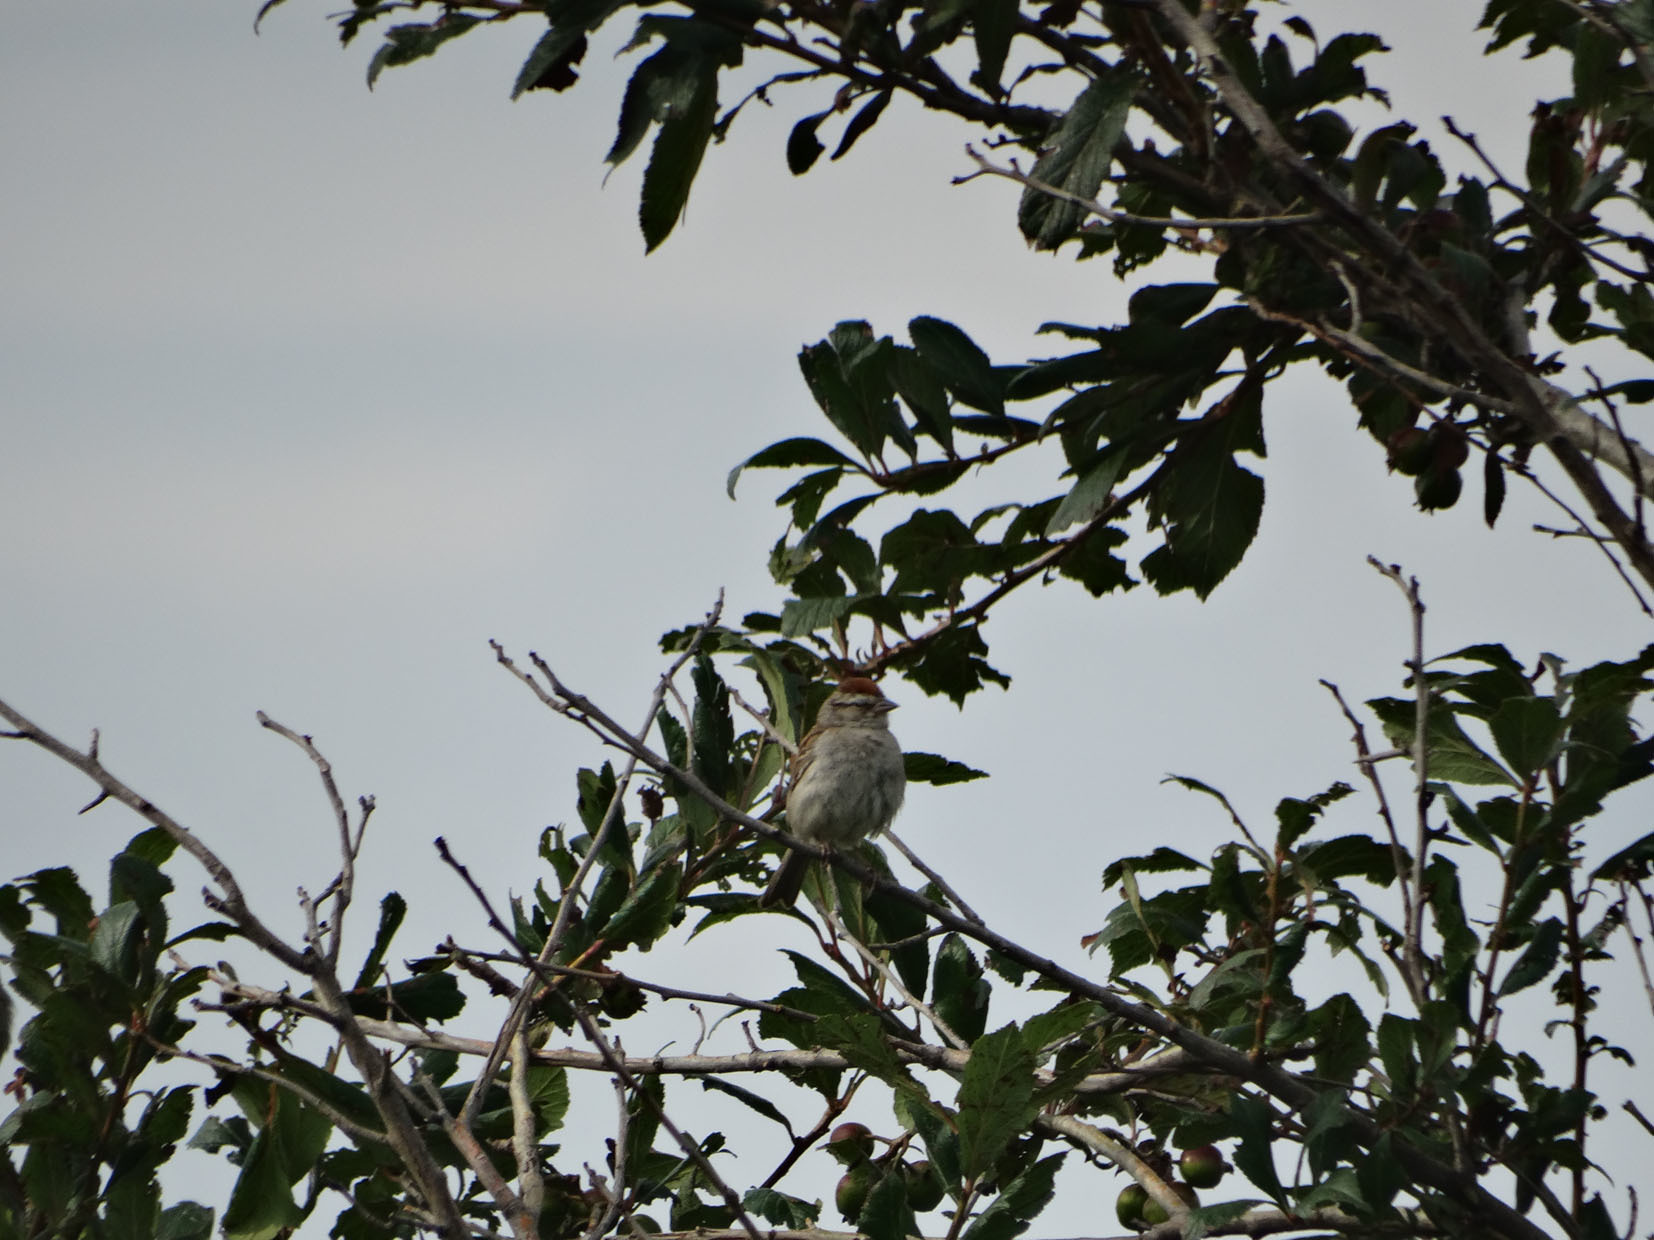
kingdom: Animalia
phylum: Chordata
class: Aves
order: Passeriformes
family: Passerellidae
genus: Spizella
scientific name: Spizella passerina
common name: Chipping sparrow
